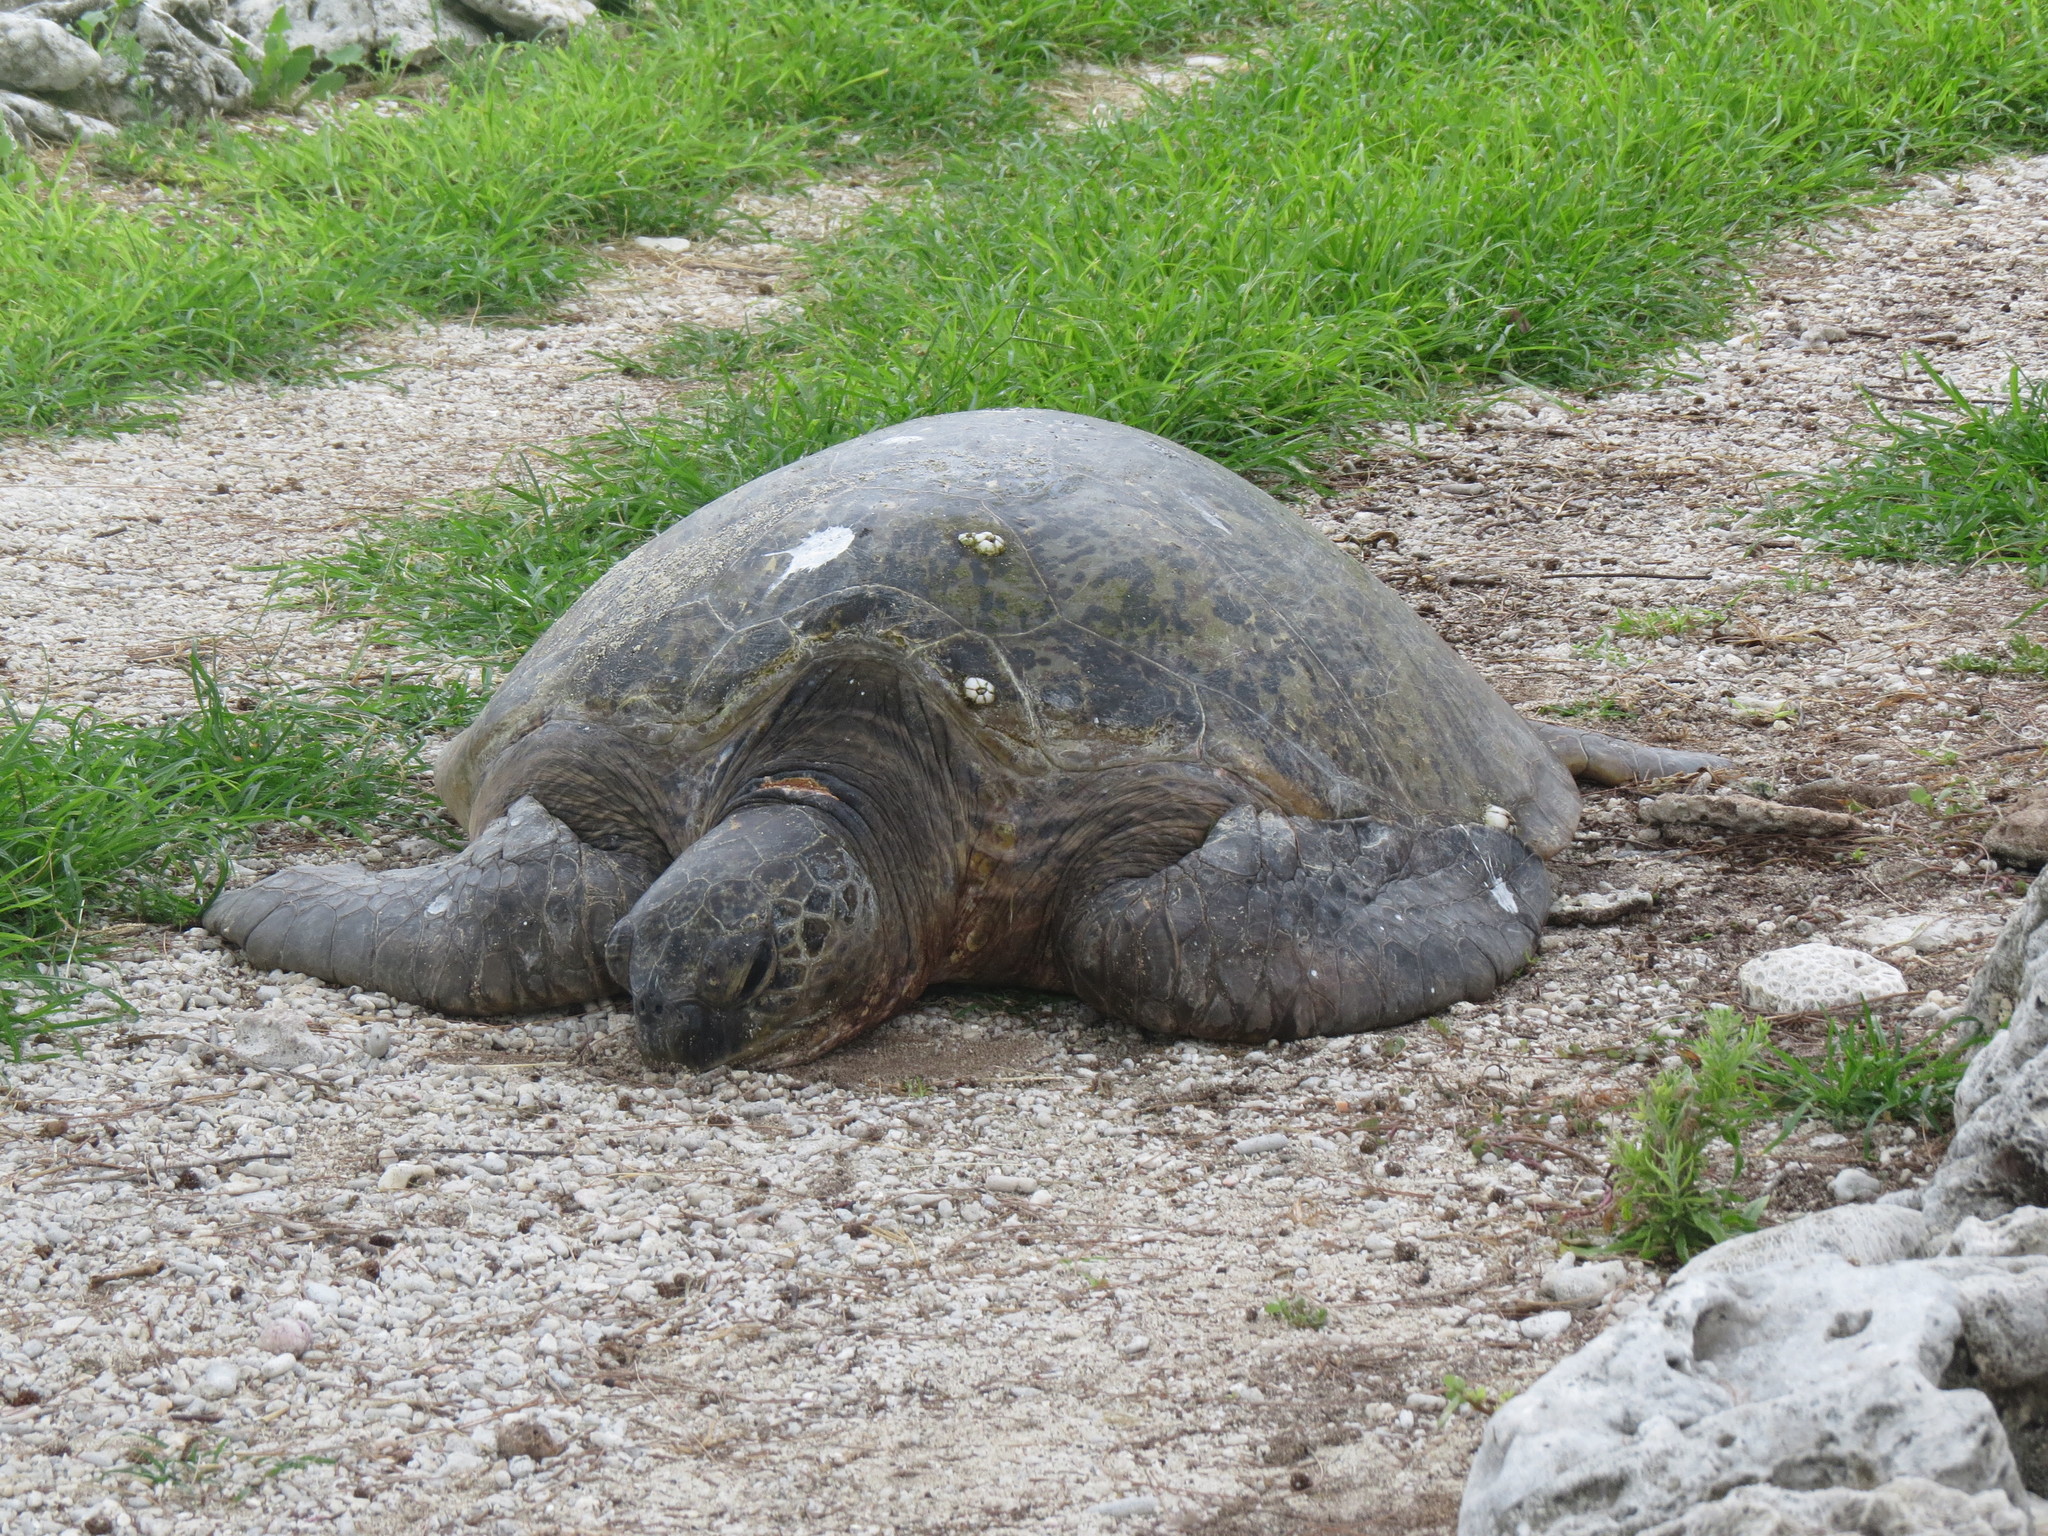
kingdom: Animalia
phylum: Chordata
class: Testudines
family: Cheloniidae
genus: Chelonia
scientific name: Chelonia mydas
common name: Green turtle
